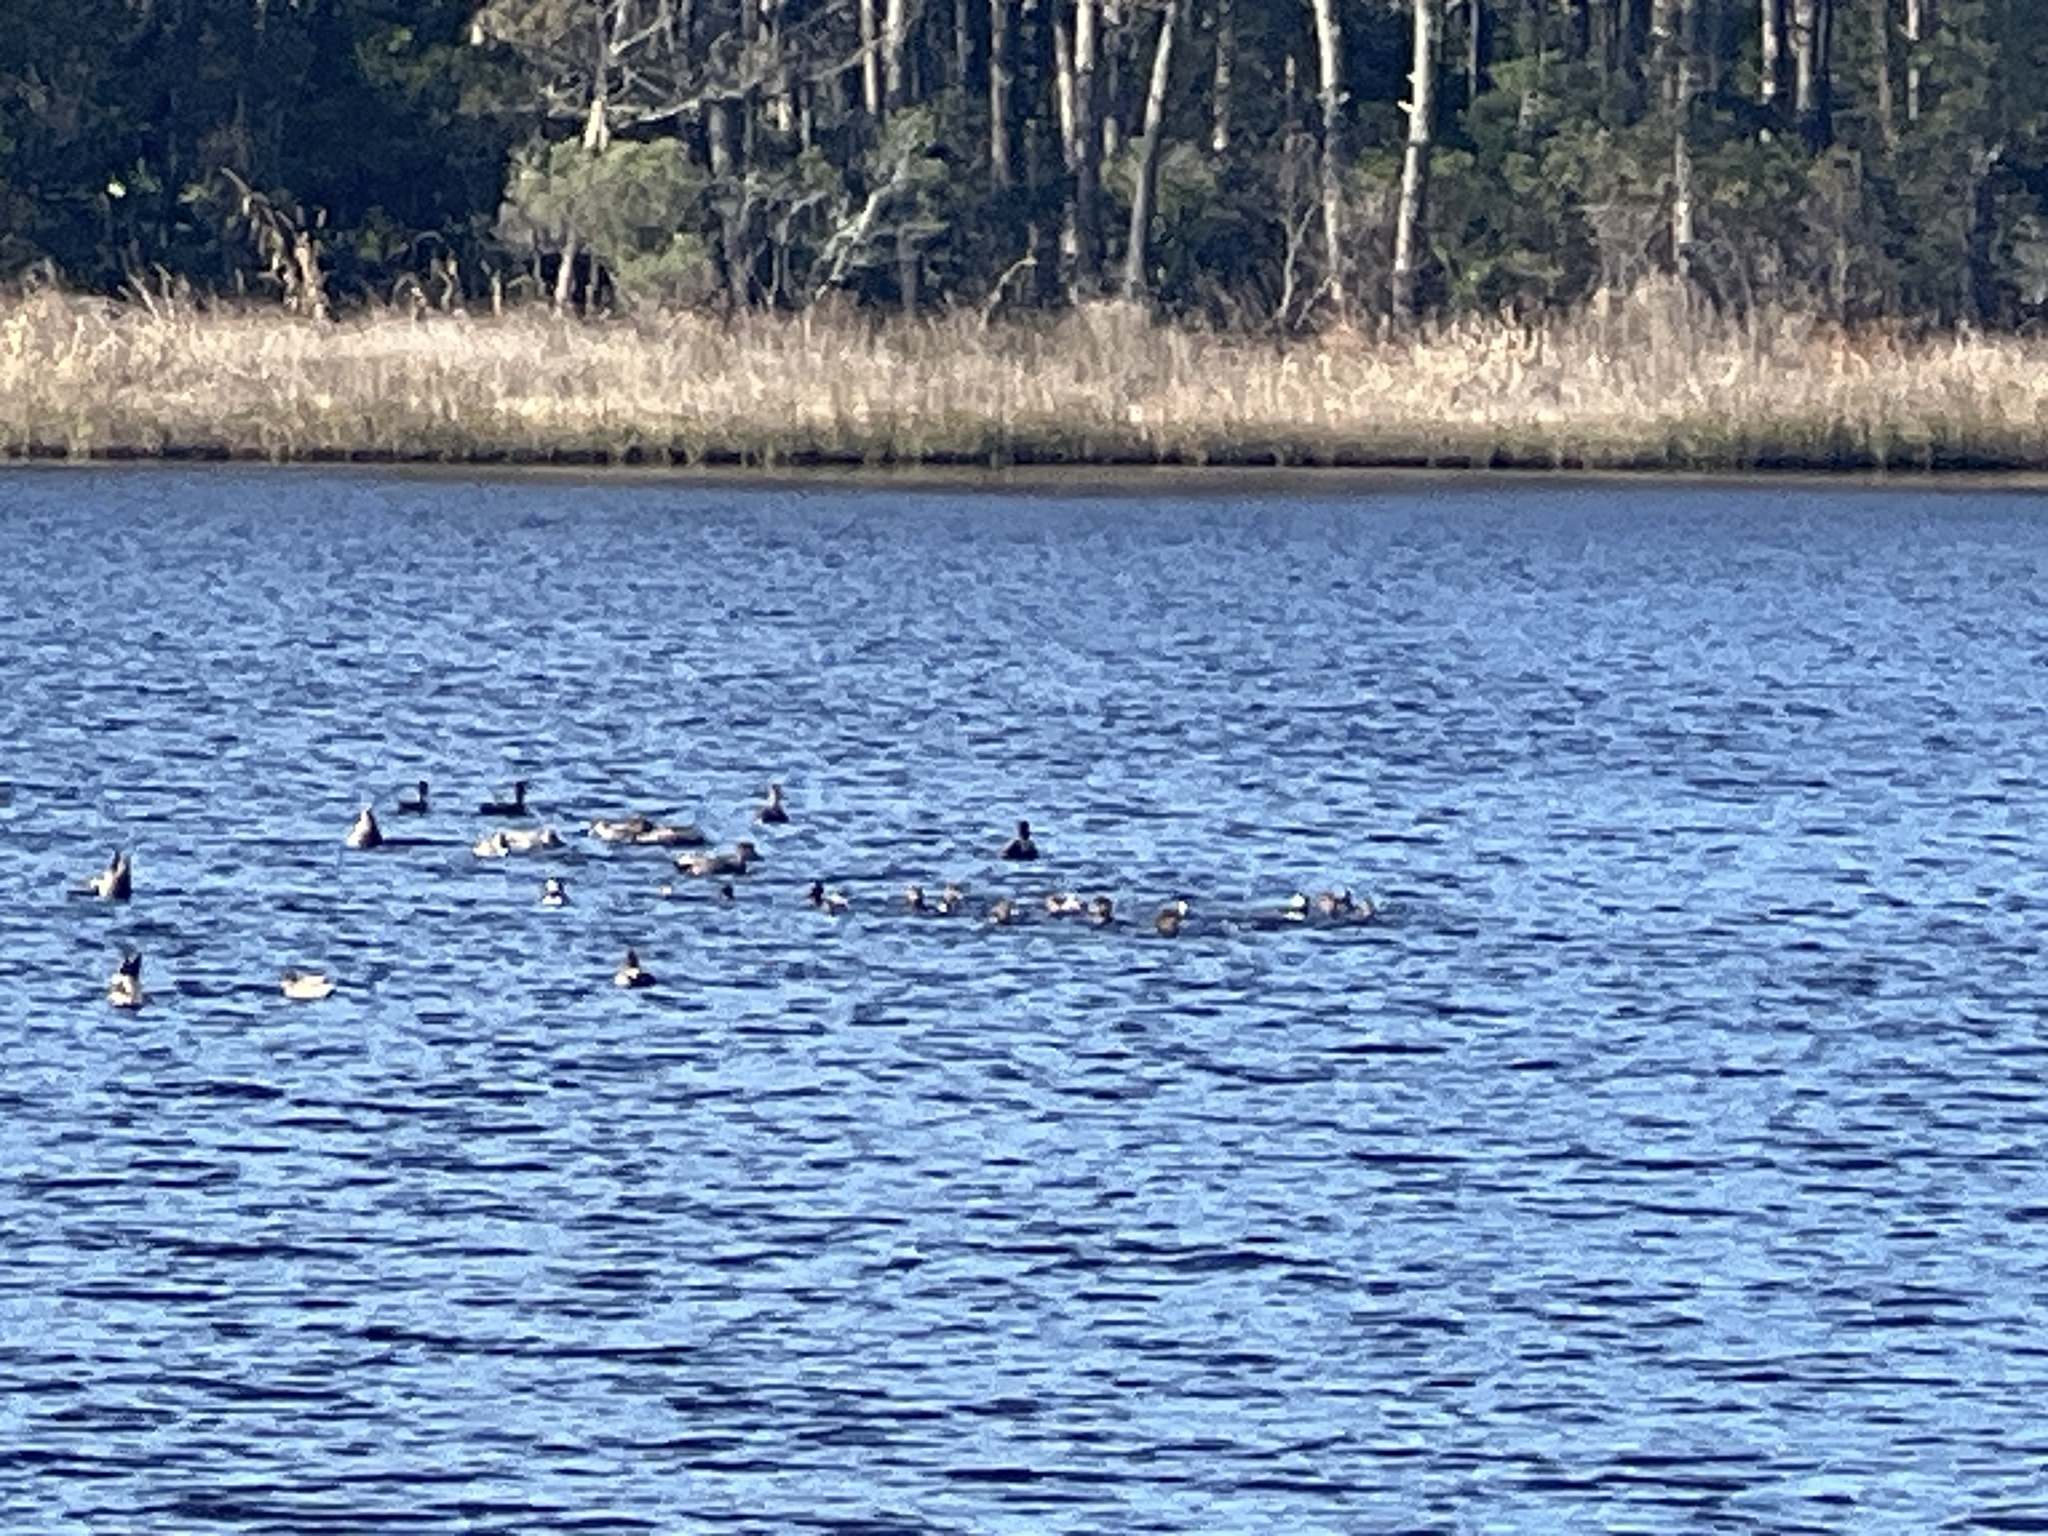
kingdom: Animalia
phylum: Chordata
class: Aves
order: Anseriformes
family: Anatidae
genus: Lophodytes
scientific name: Lophodytes cucullatus
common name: Hooded merganser
